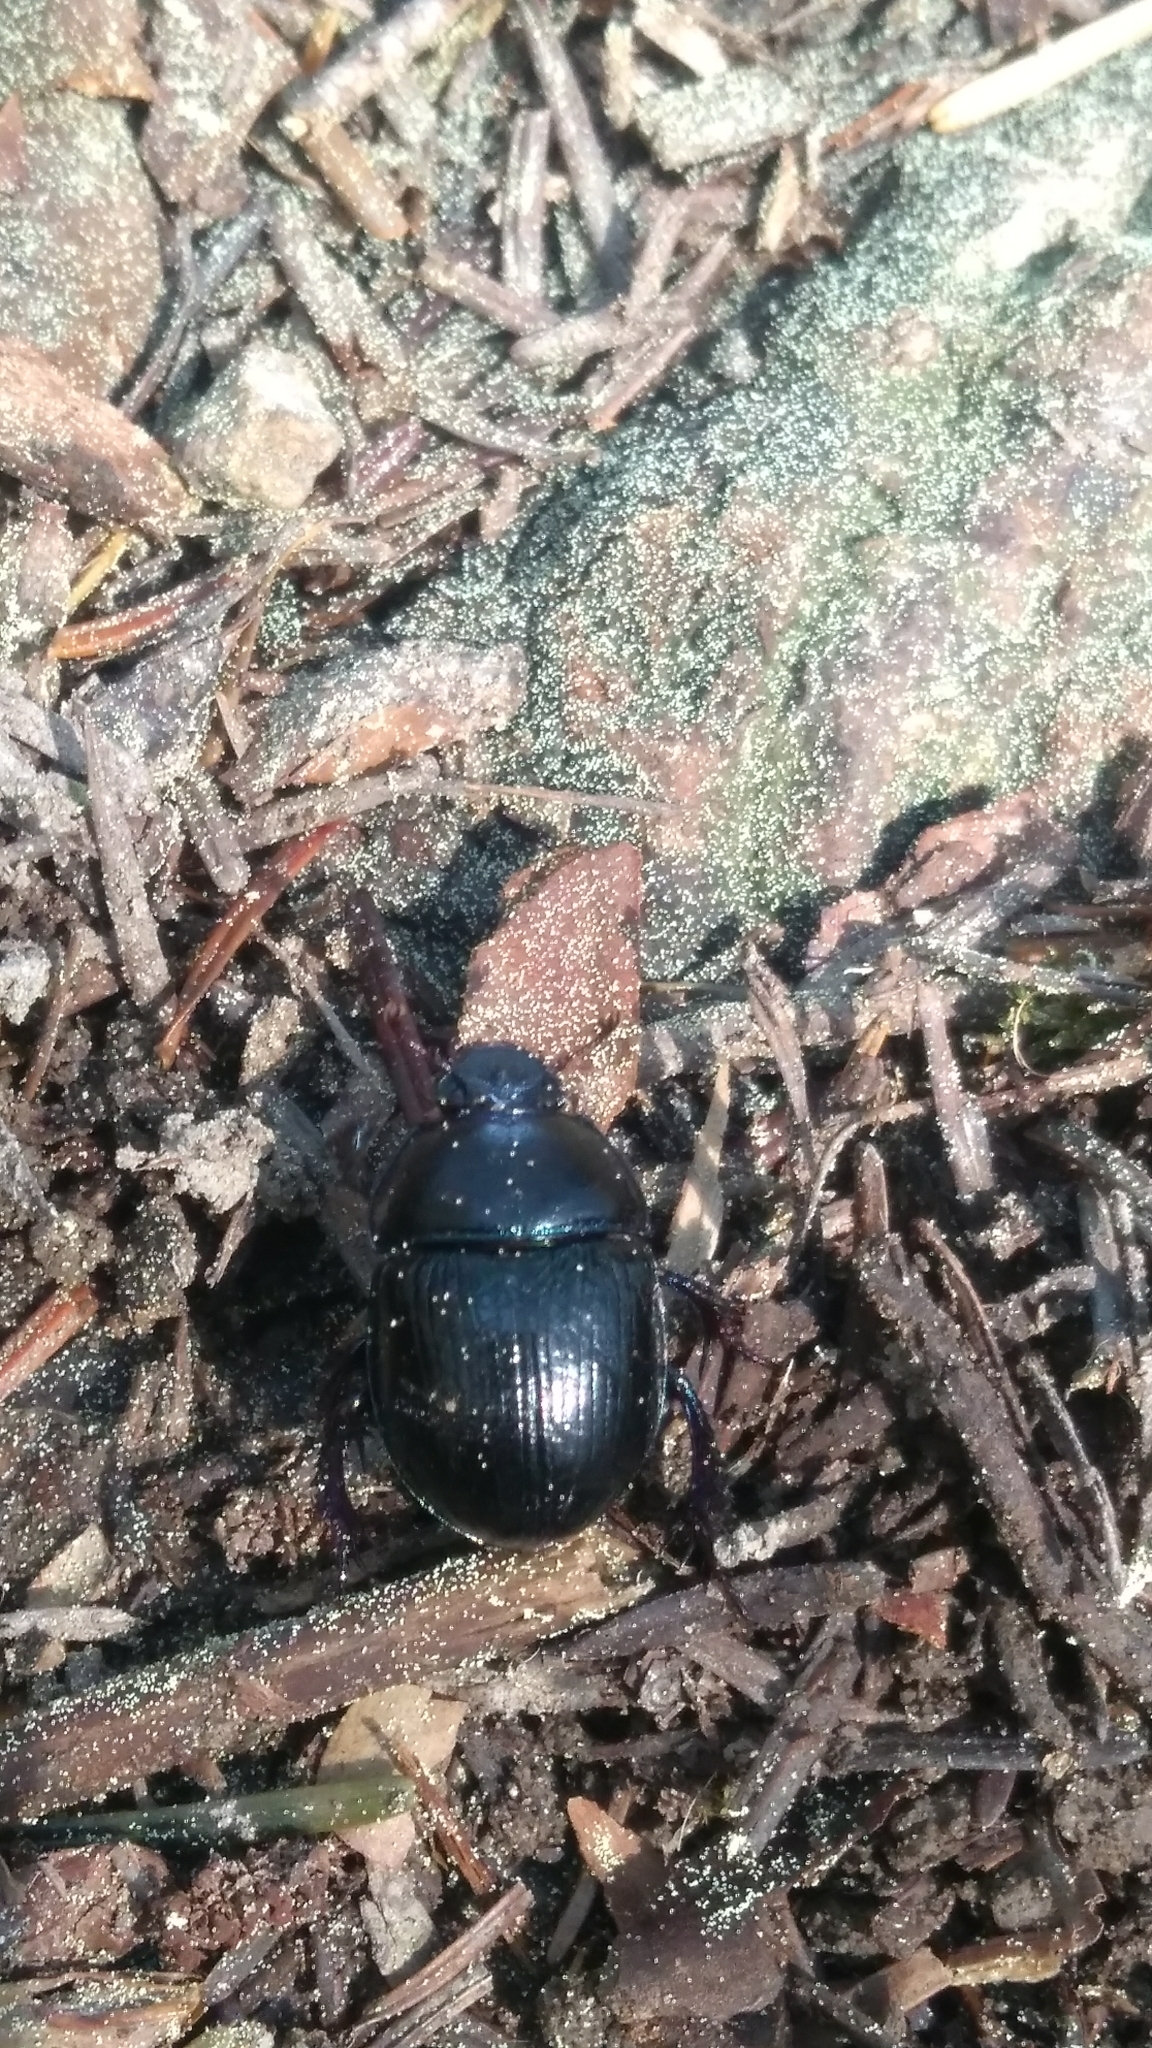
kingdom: Animalia
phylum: Arthropoda
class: Insecta
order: Coleoptera
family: Geotrupidae
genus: Anoplotrupes
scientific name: Anoplotrupes stercorosus
